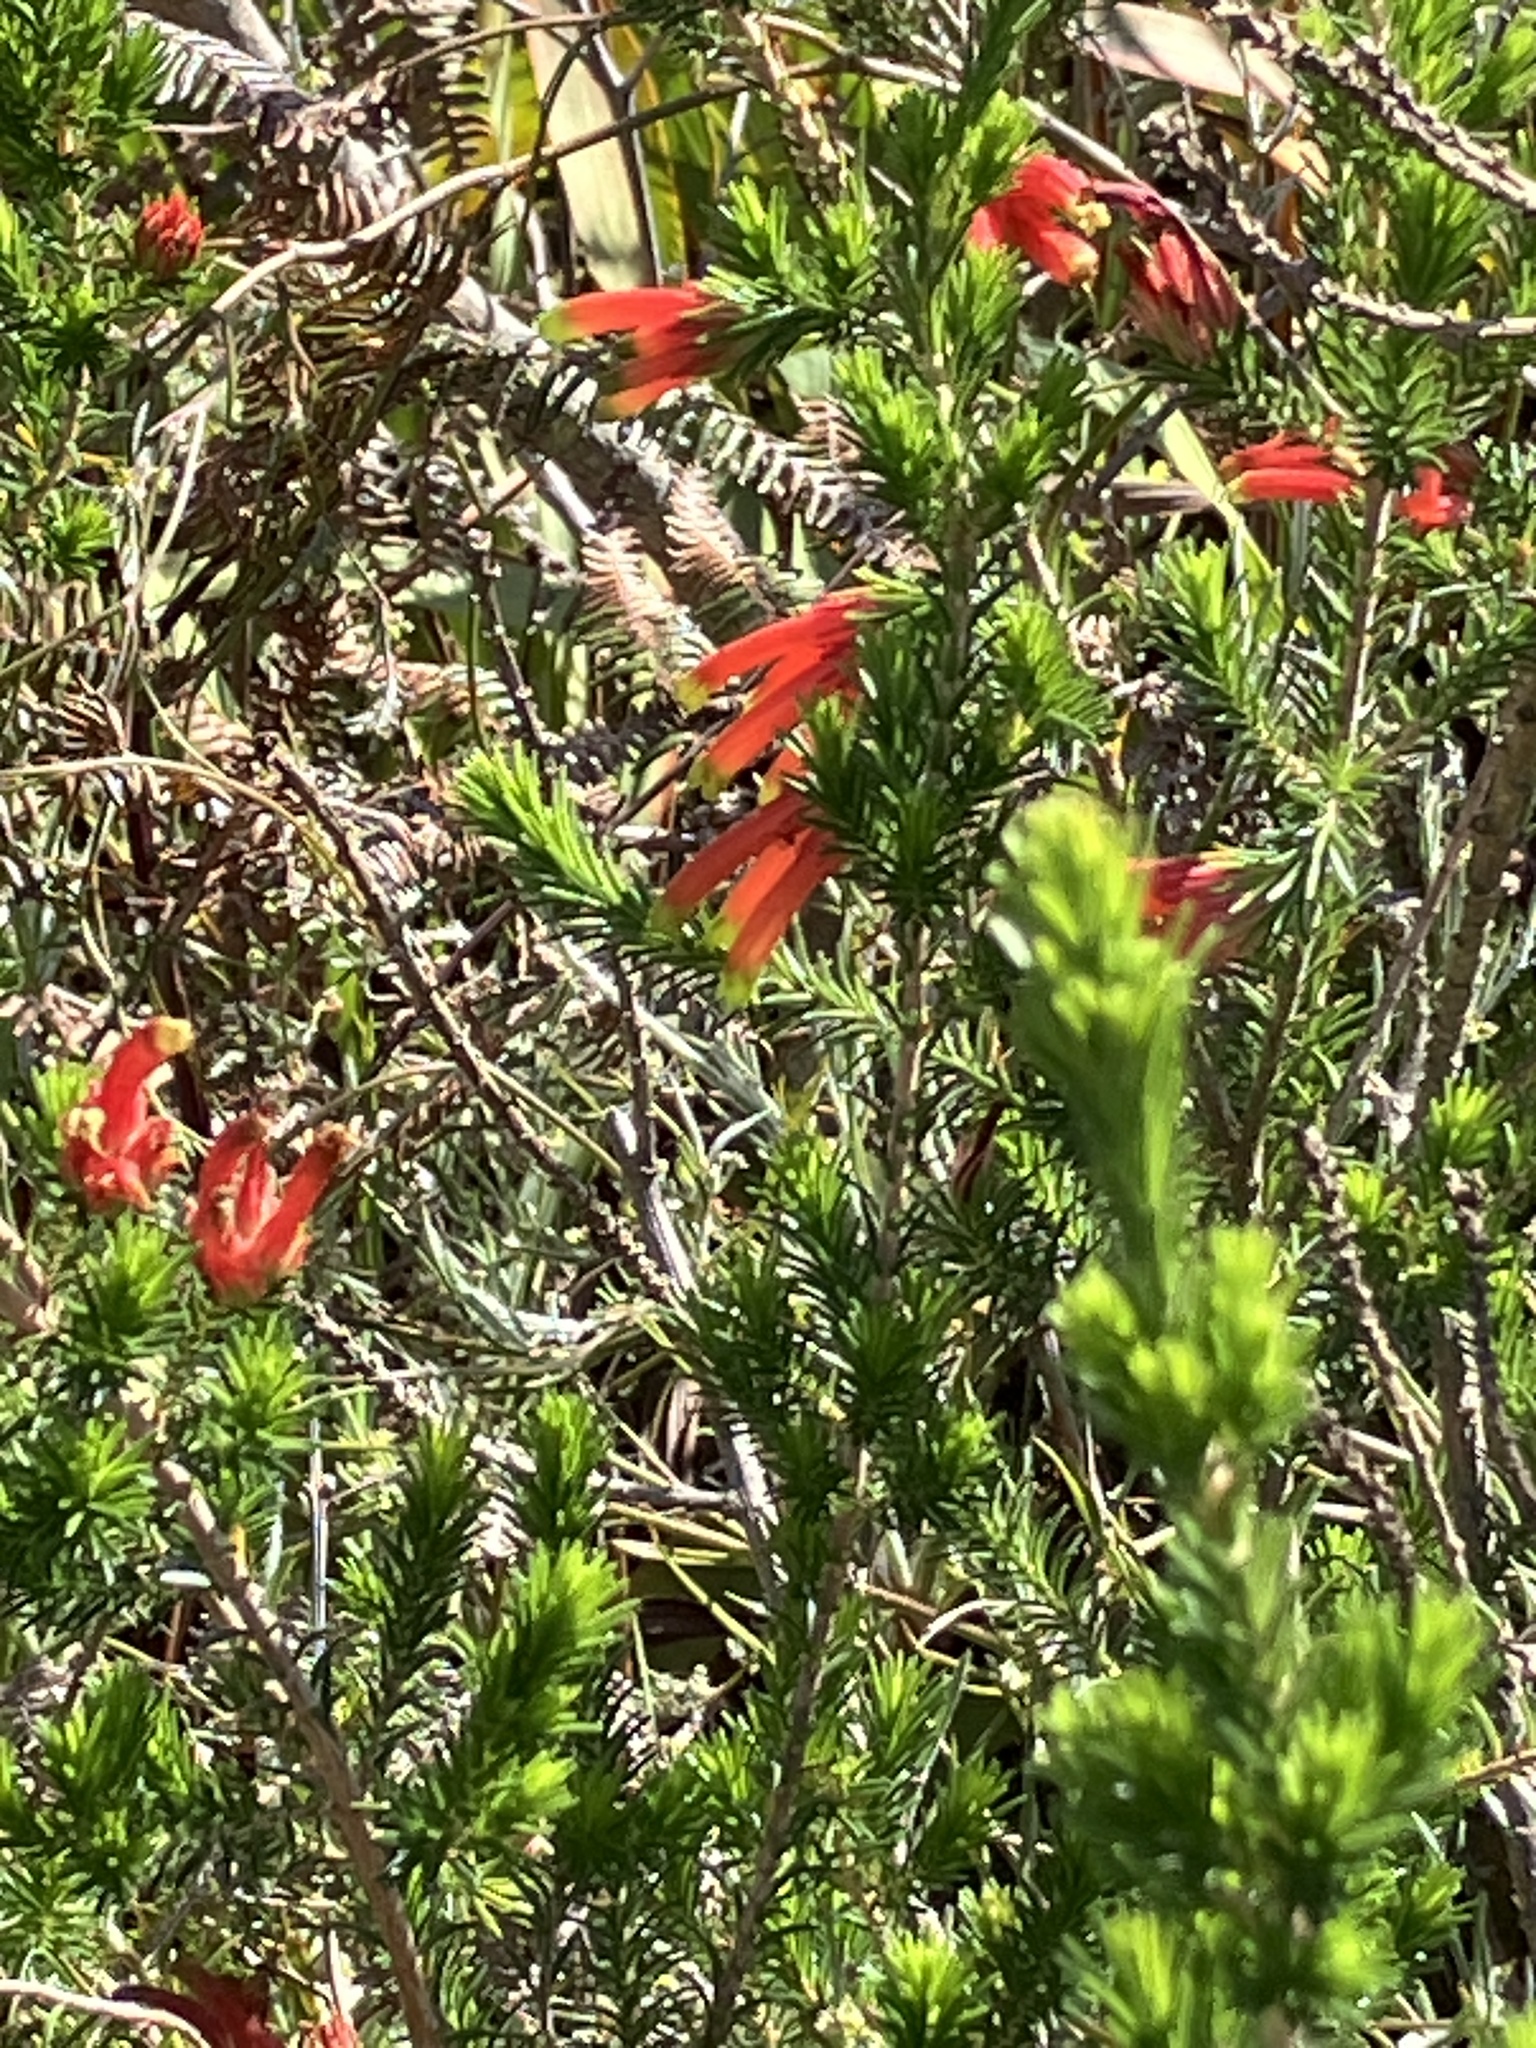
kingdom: Plantae
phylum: Tracheophyta
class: Magnoliopsida
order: Ericales
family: Ericaceae
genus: Erica
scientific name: Erica unicolor
